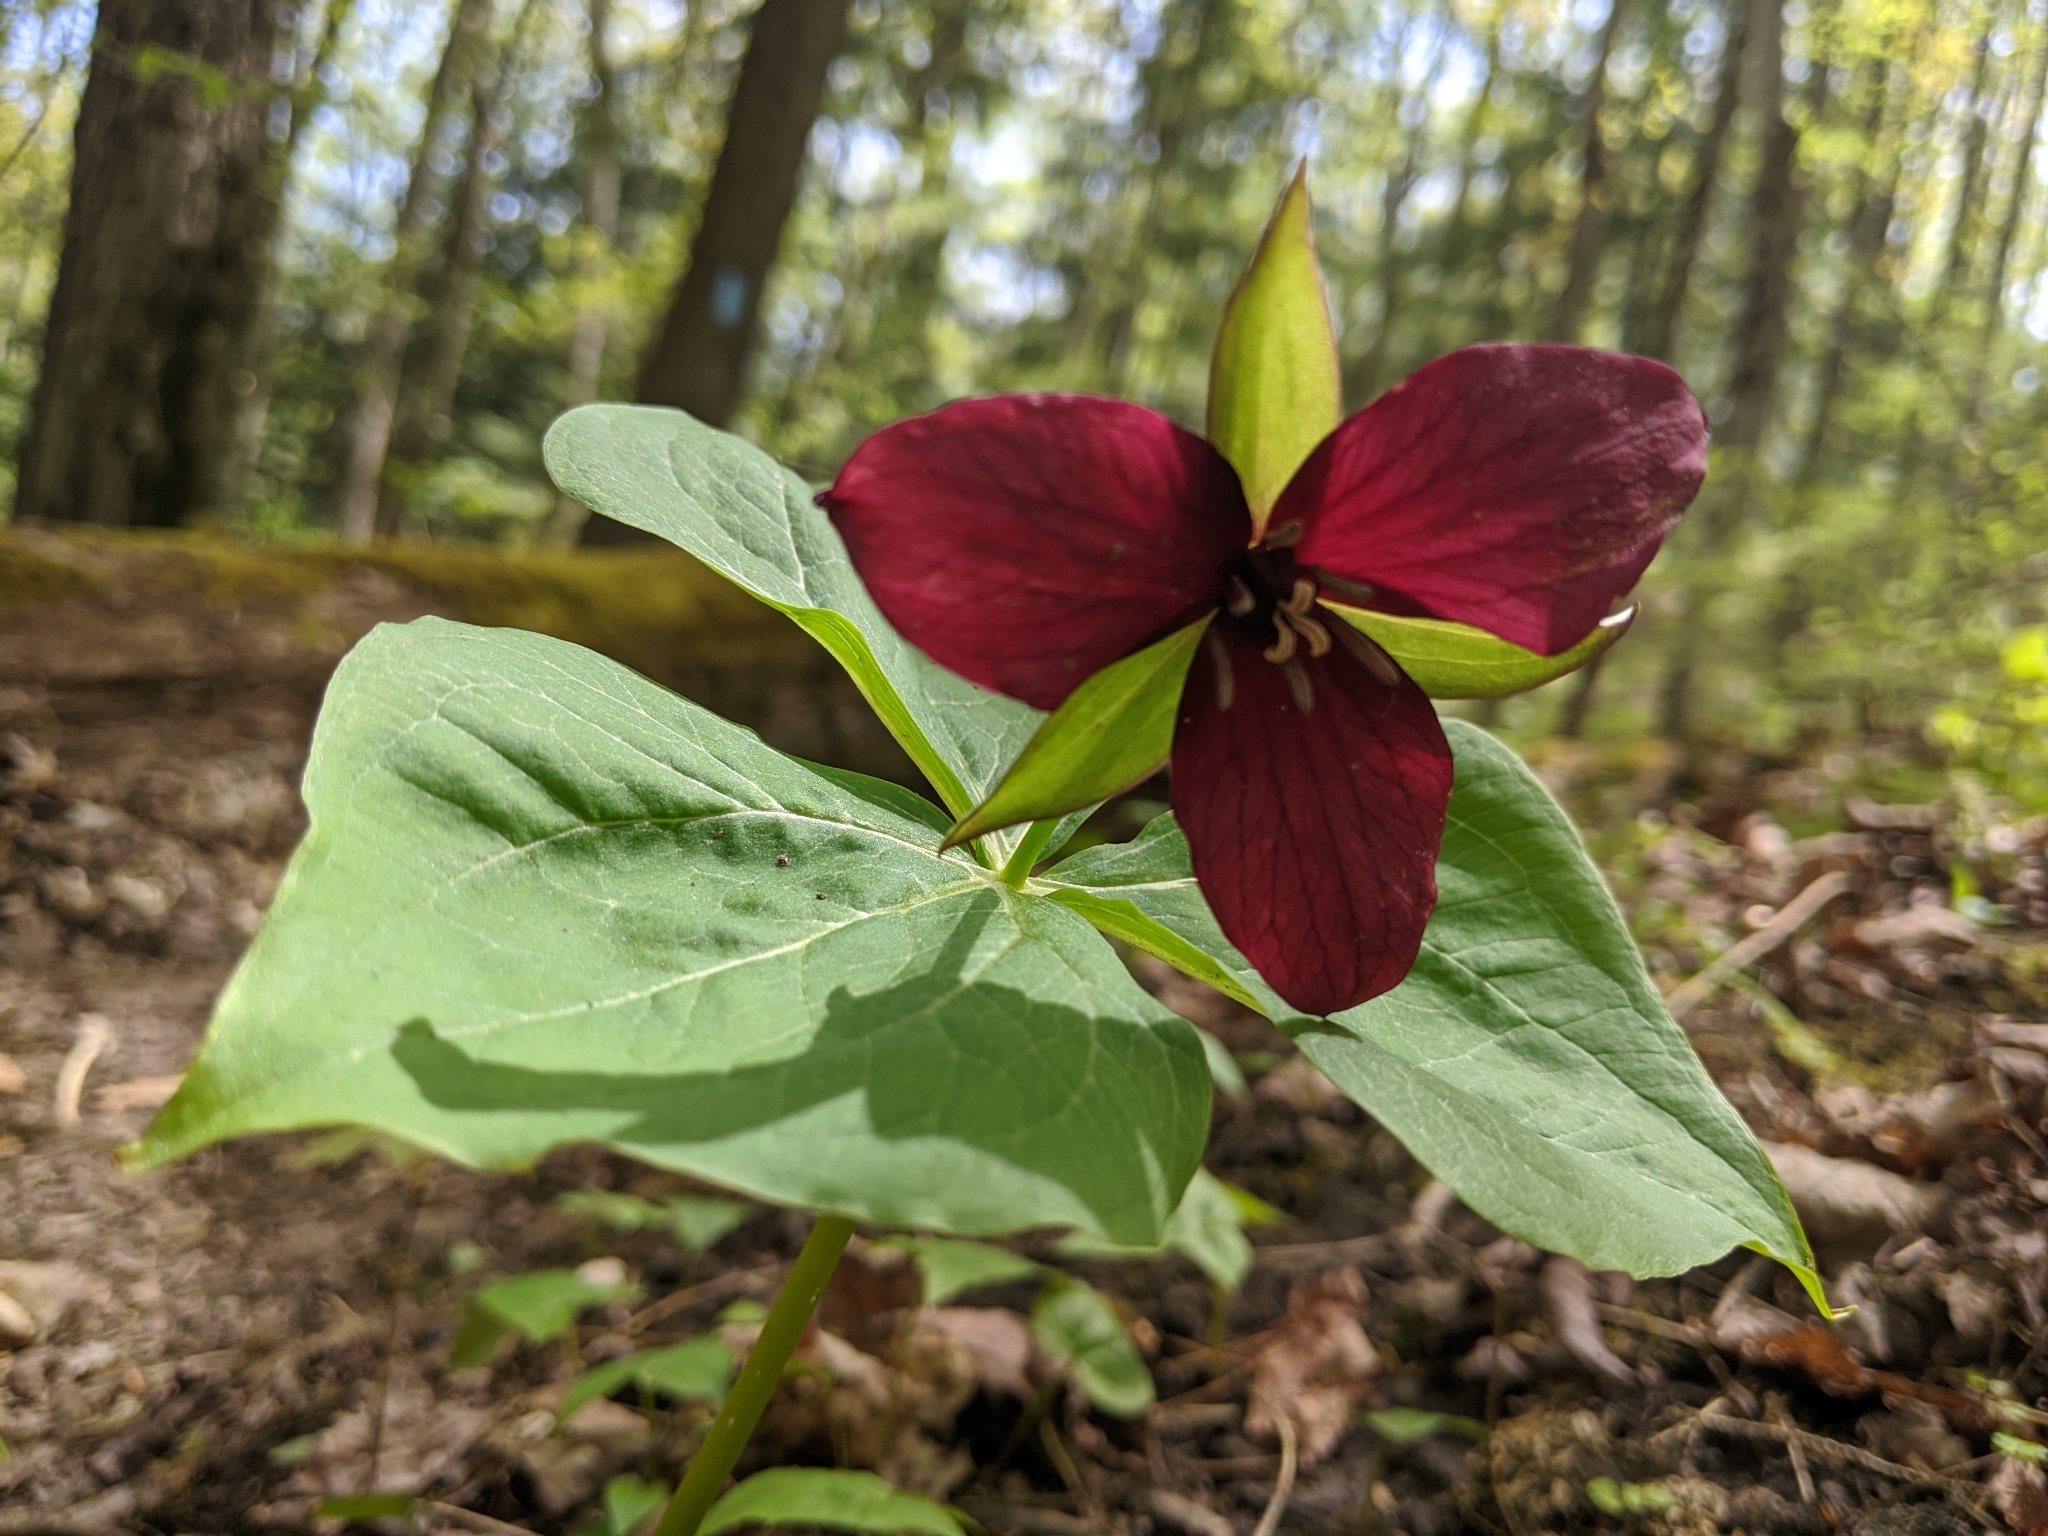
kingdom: Plantae
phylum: Tracheophyta
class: Liliopsida
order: Liliales
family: Melanthiaceae
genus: Trillium
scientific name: Trillium erectum
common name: Purple trillium
